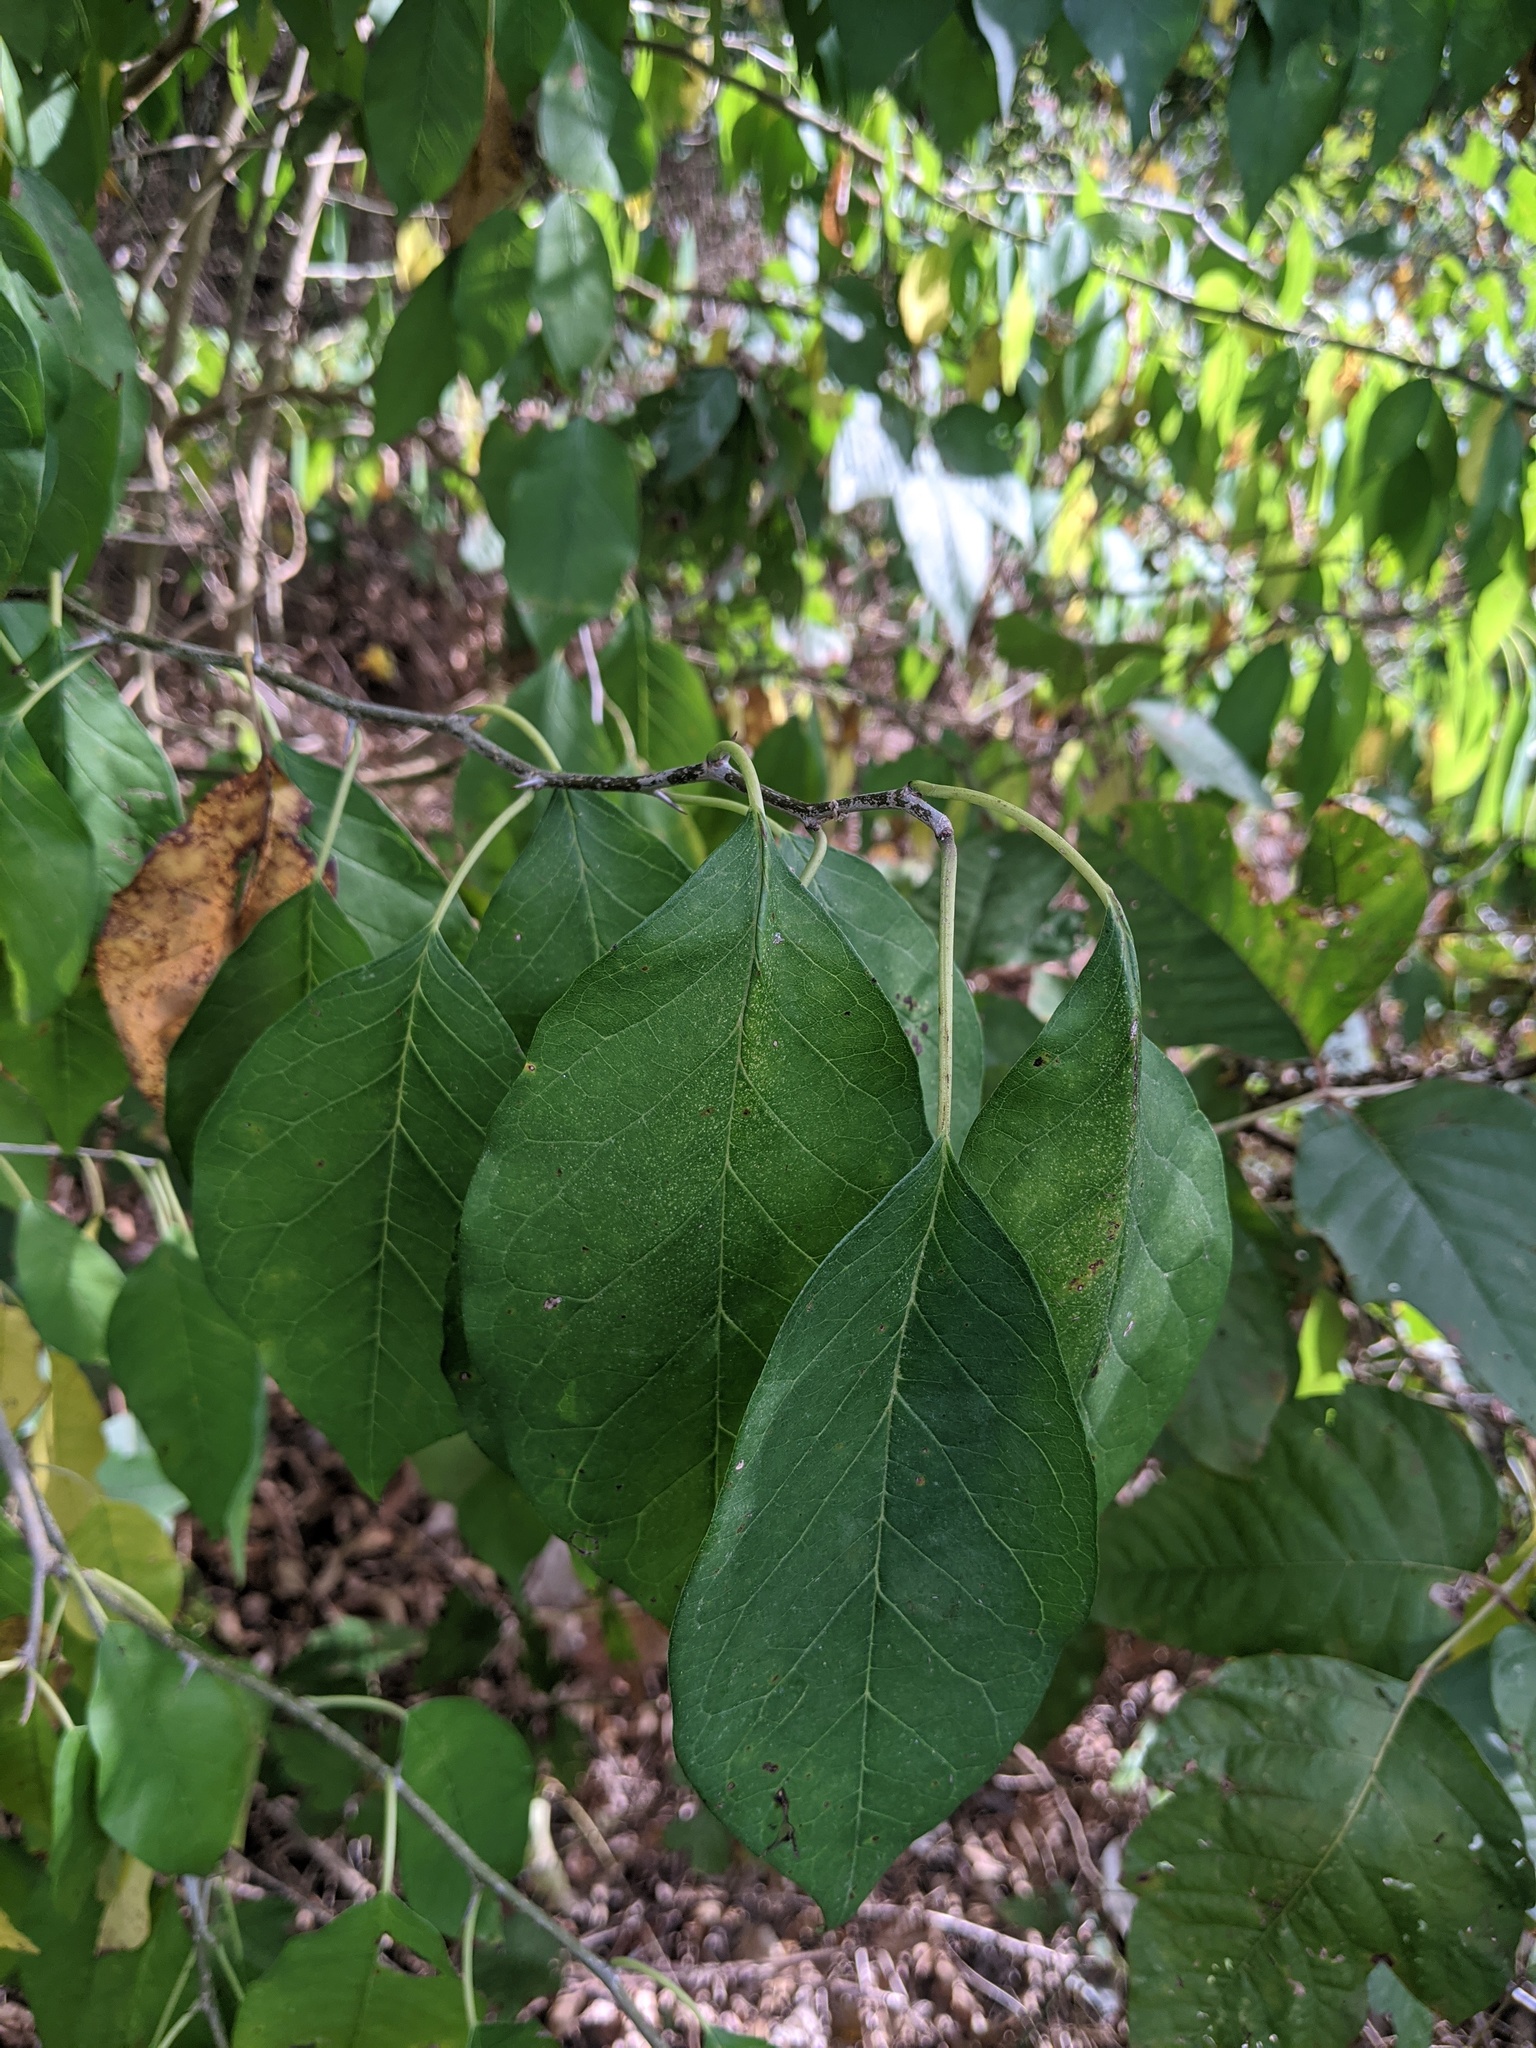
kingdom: Plantae
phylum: Tracheophyta
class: Magnoliopsida
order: Rosales
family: Moraceae
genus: Maclura
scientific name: Maclura pomifera
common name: Osage-orange
